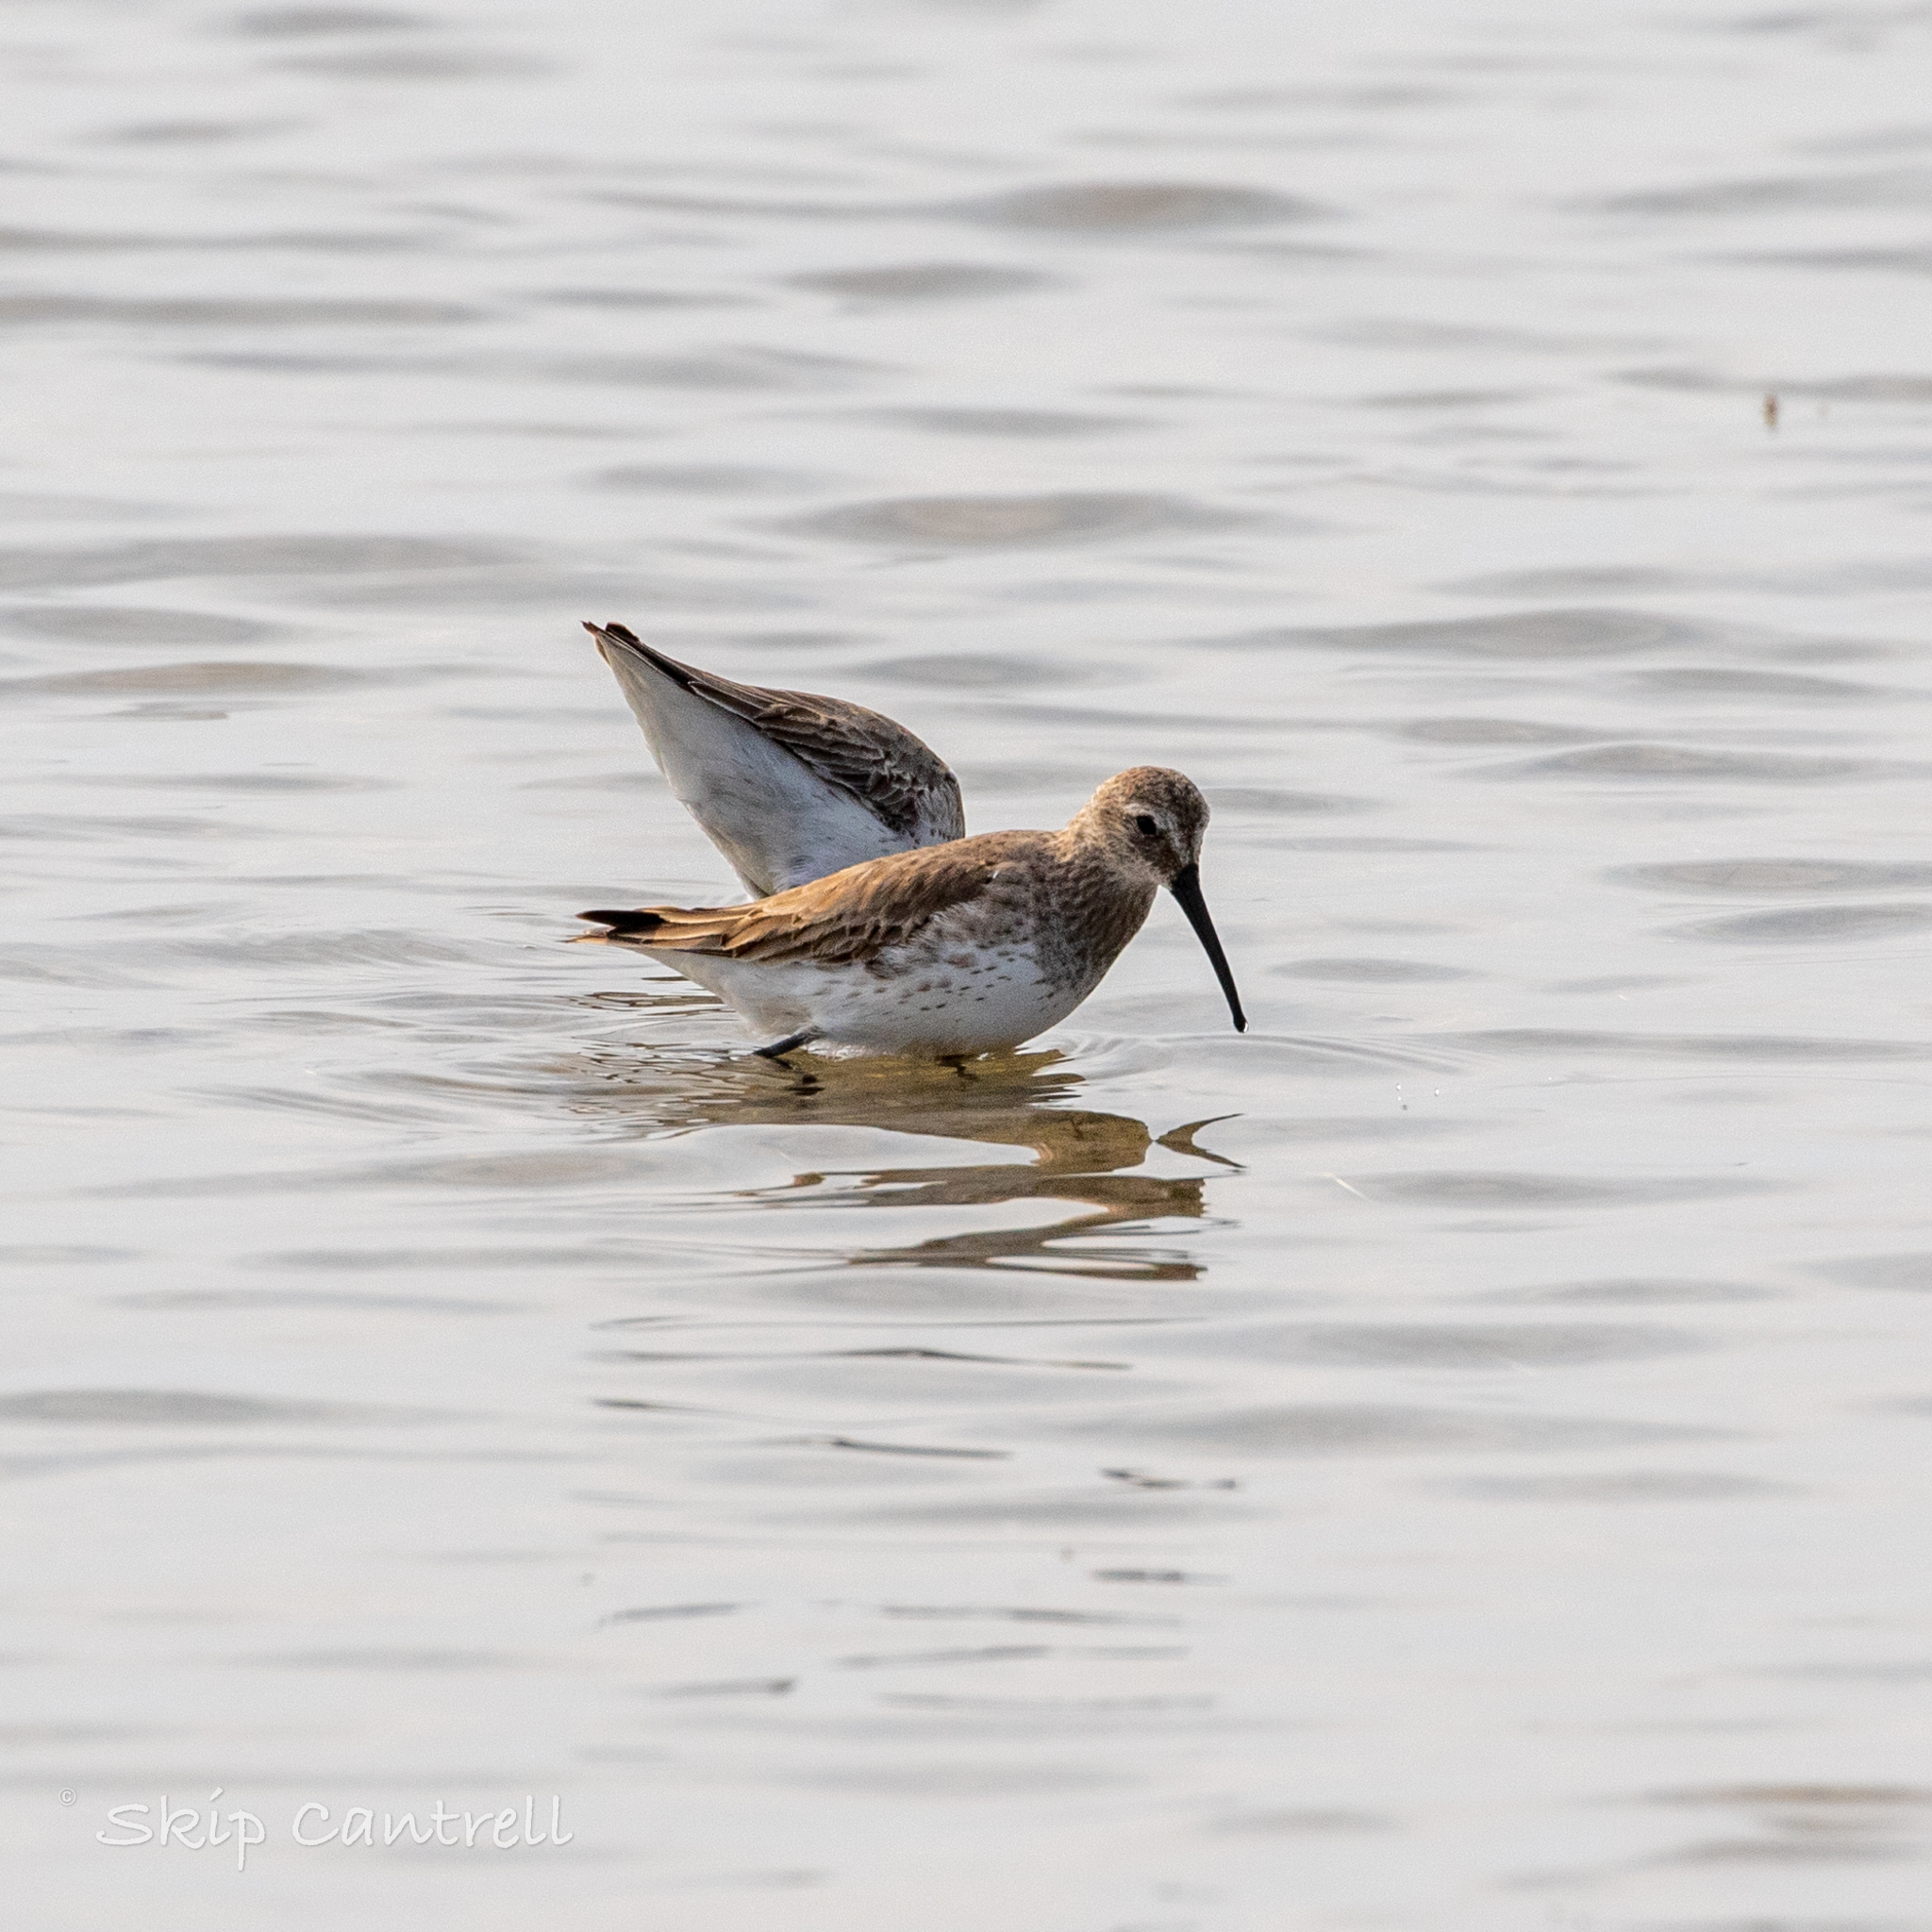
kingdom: Animalia
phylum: Chordata
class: Aves
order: Charadriiformes
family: Scolopacidae
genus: Calidris
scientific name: Calidris alpina
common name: Dunlin
